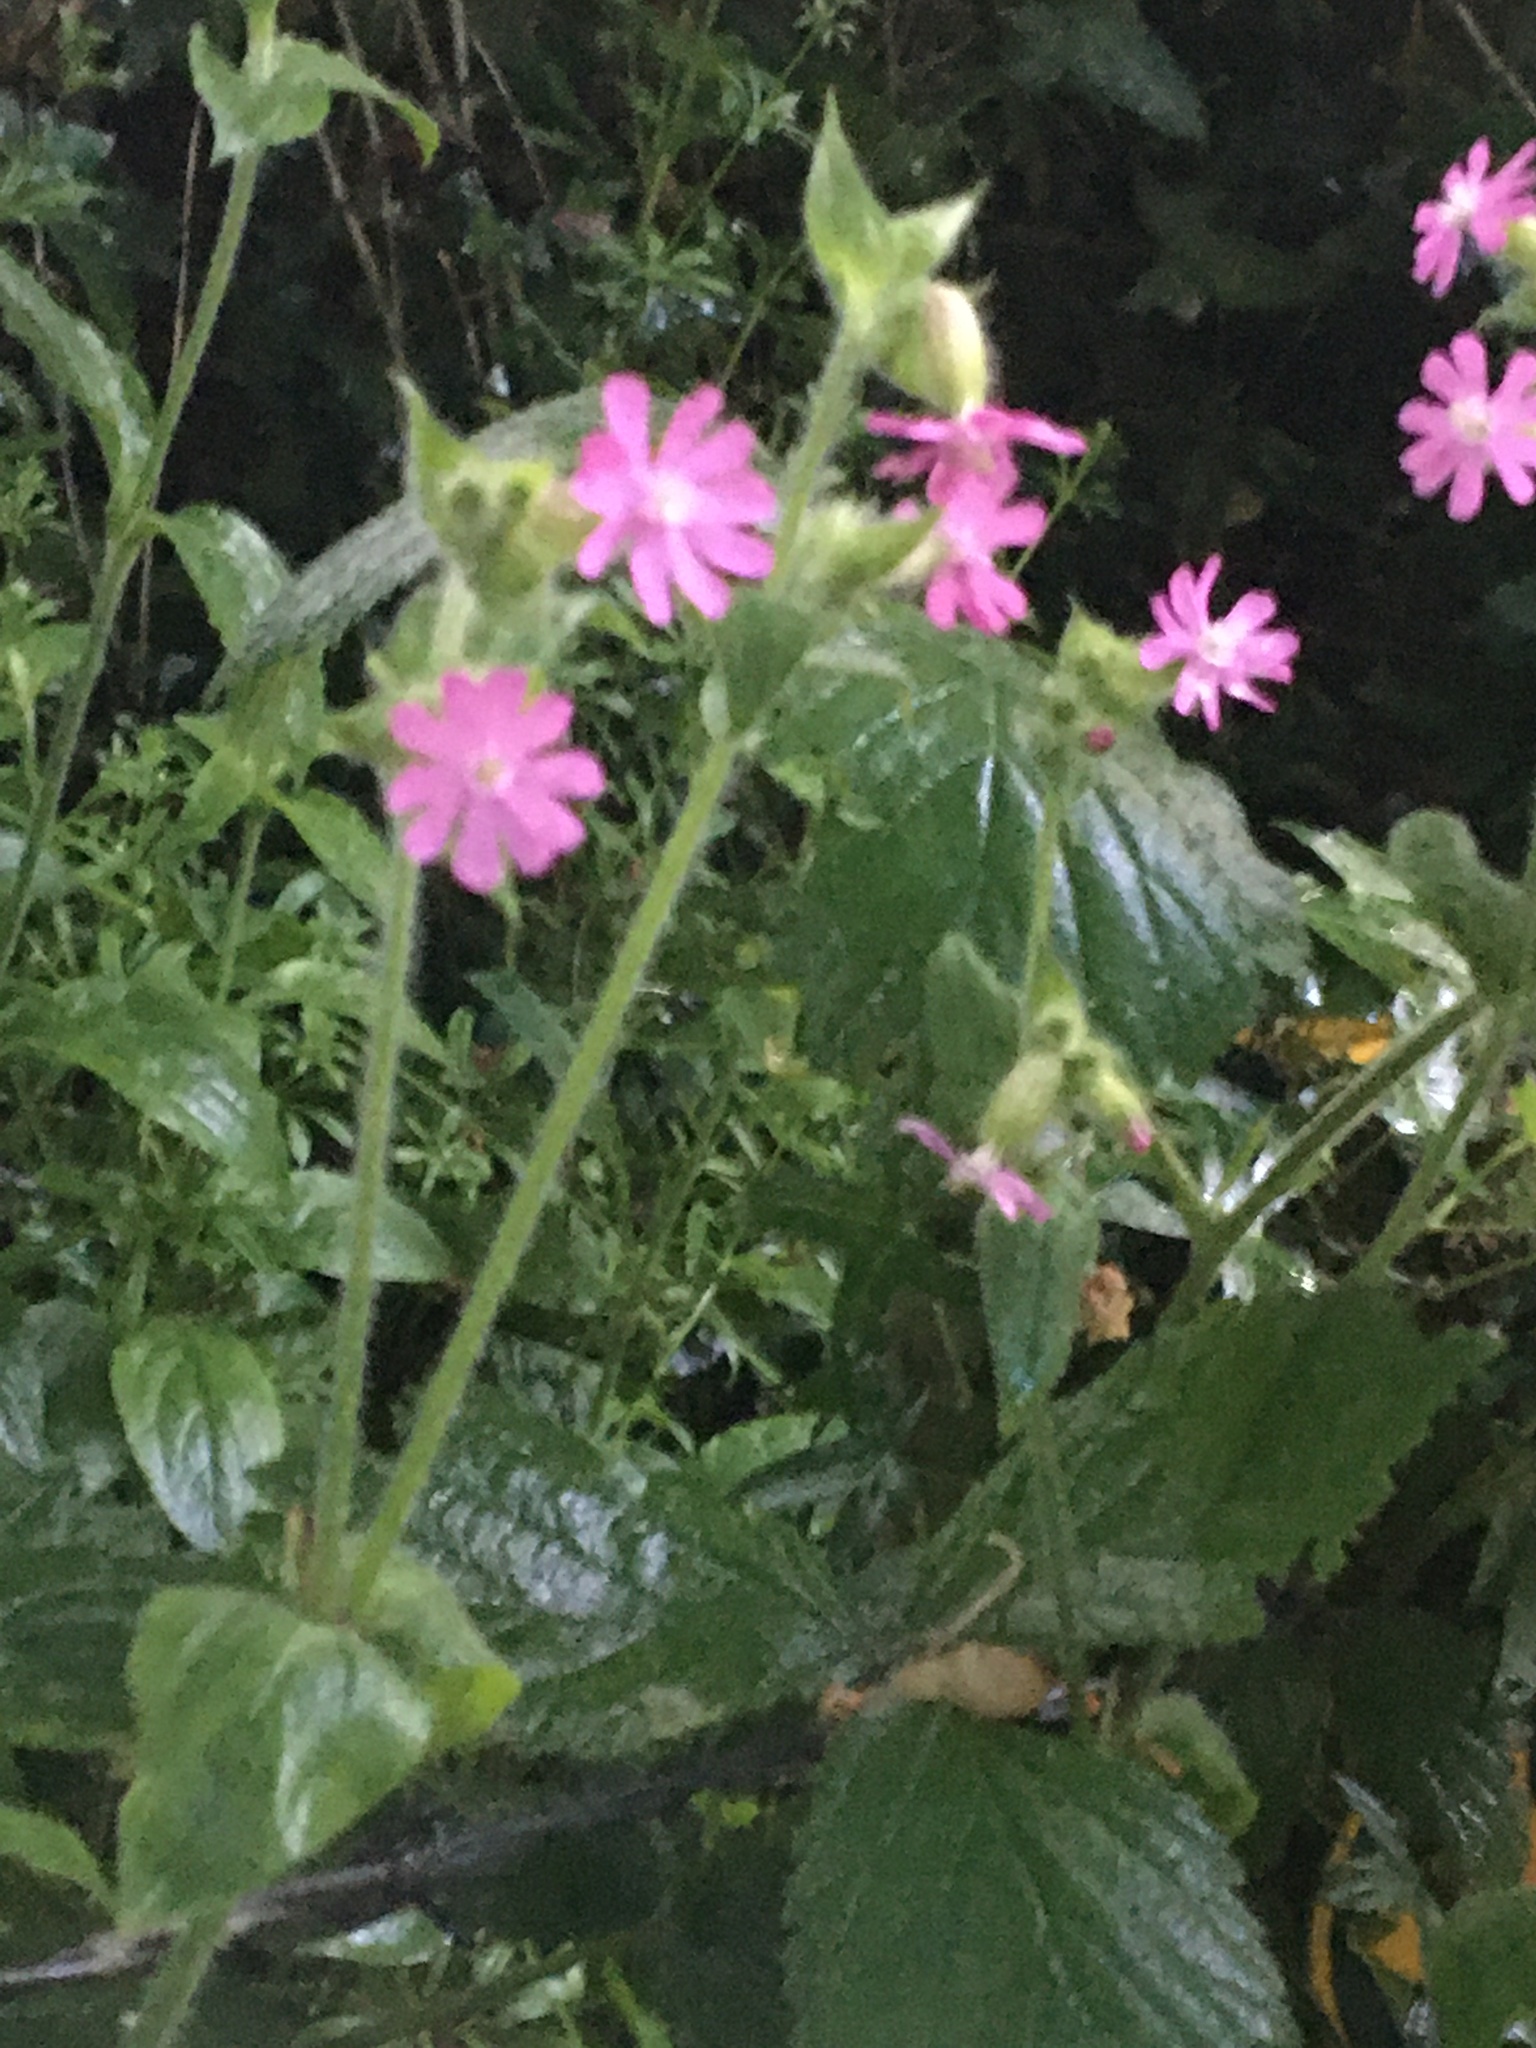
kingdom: Plantae
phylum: Tracheophyta
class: Magnoliopsida
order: Caryophyllales
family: Caryophyllaceae
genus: Silene
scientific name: Silene dioica
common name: Red campion
